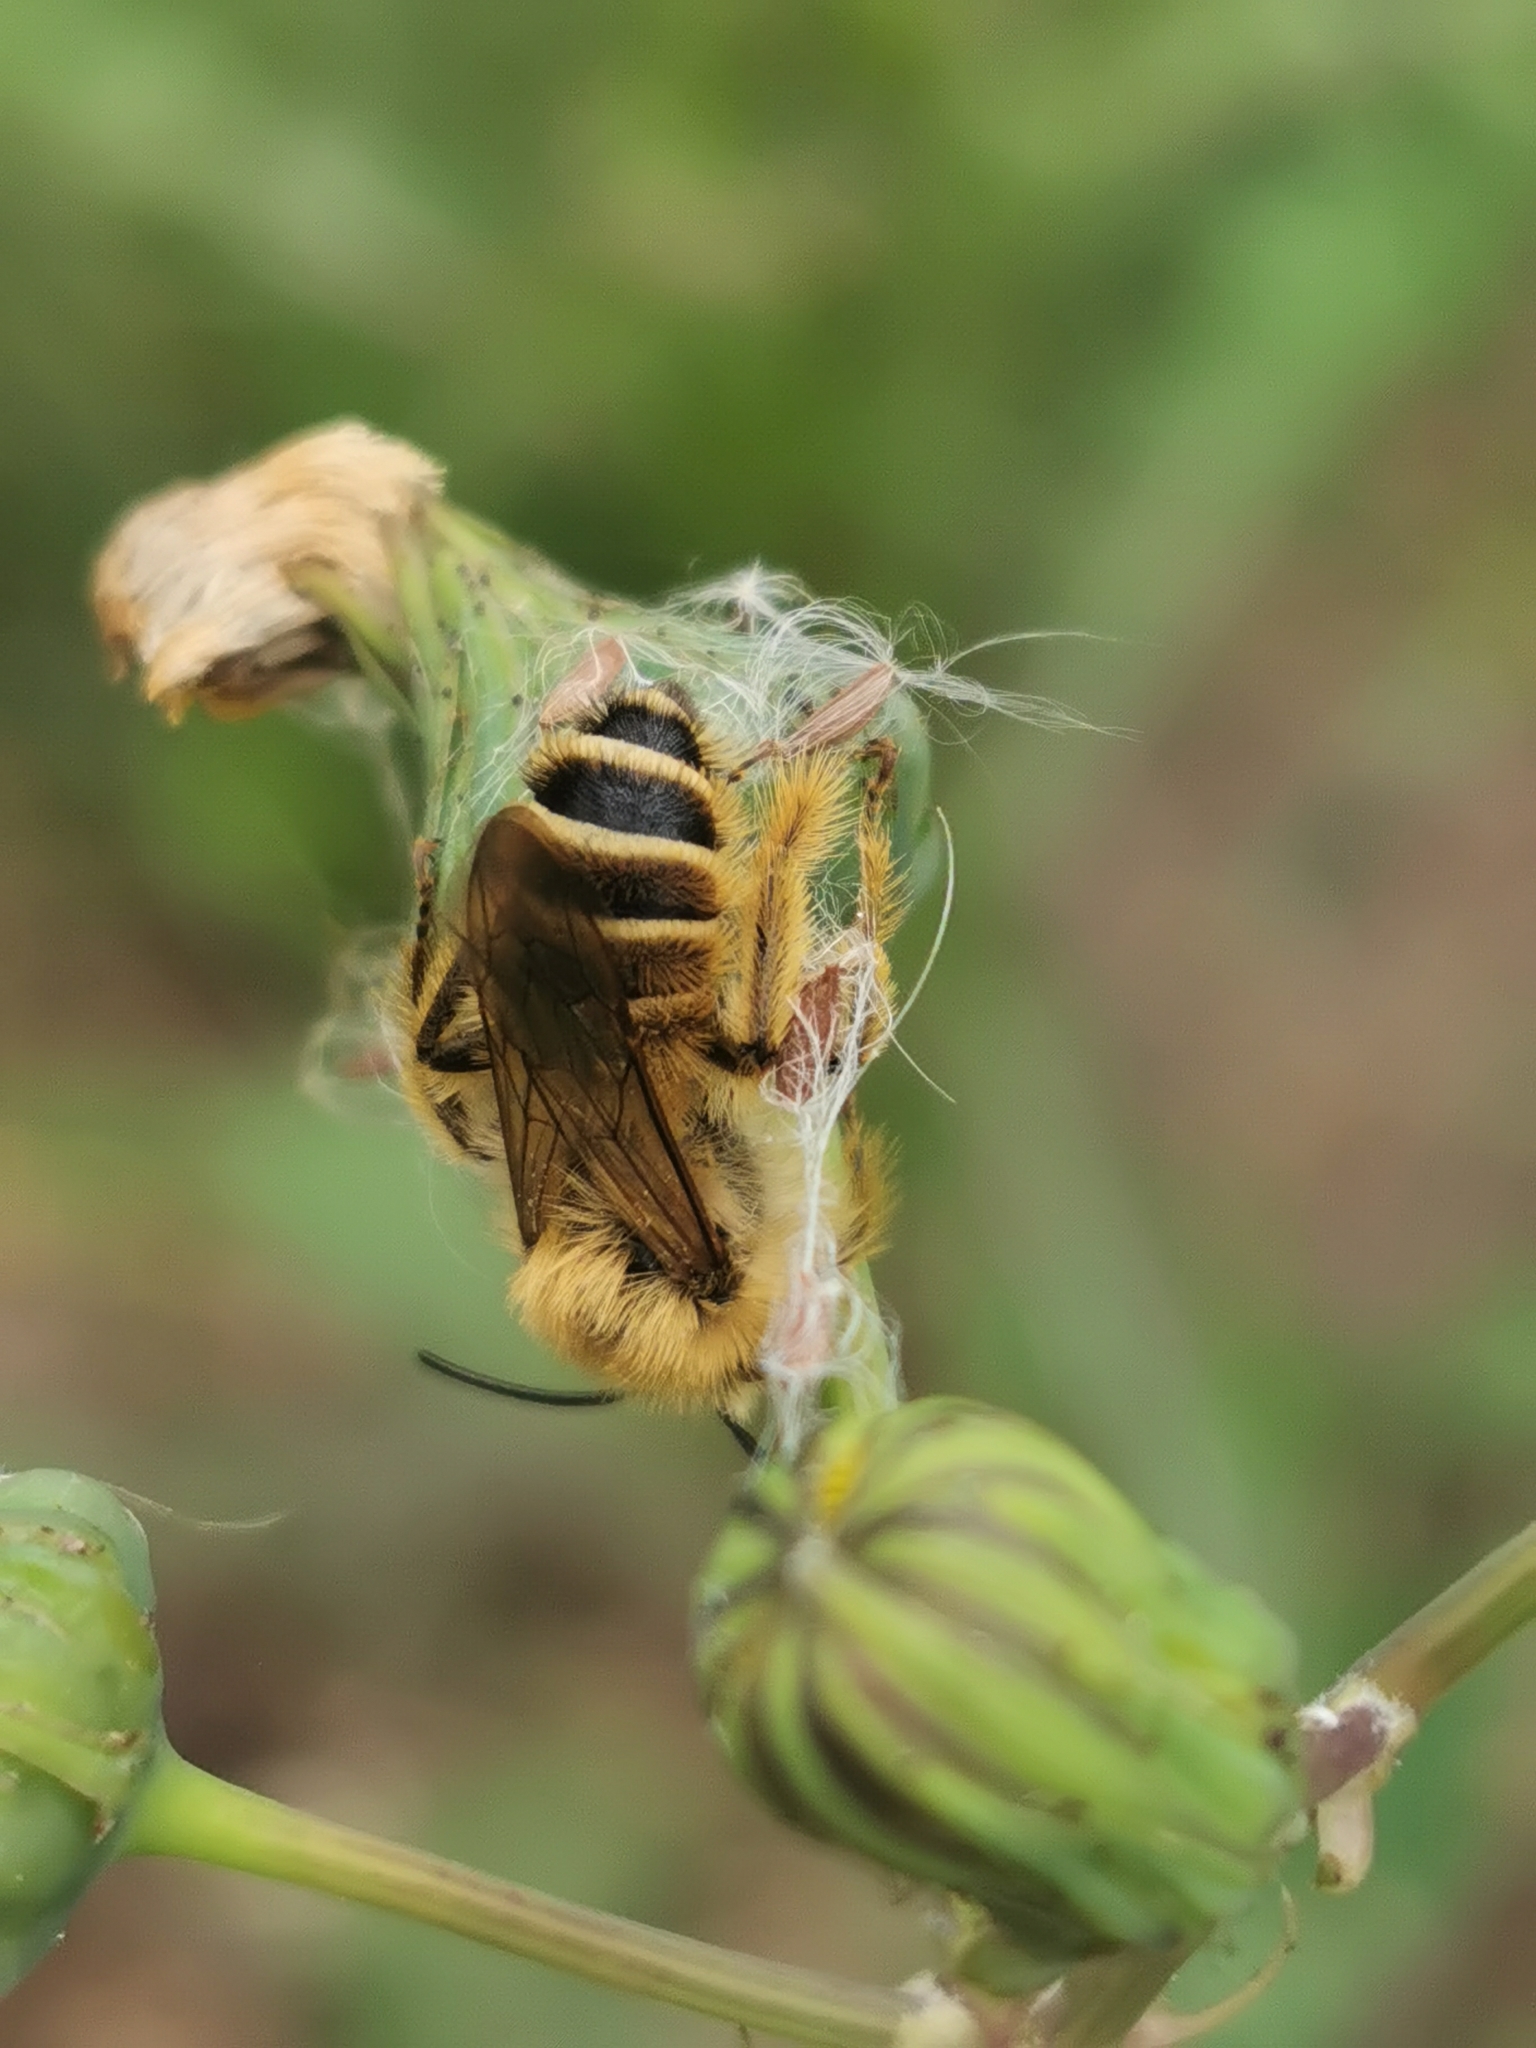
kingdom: Animalia
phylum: Arthropoda
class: Insecta
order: Hymenoptera
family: Melittidae
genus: Dasypoda
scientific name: Dasypoda hirtipes
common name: Pantaloon bee
